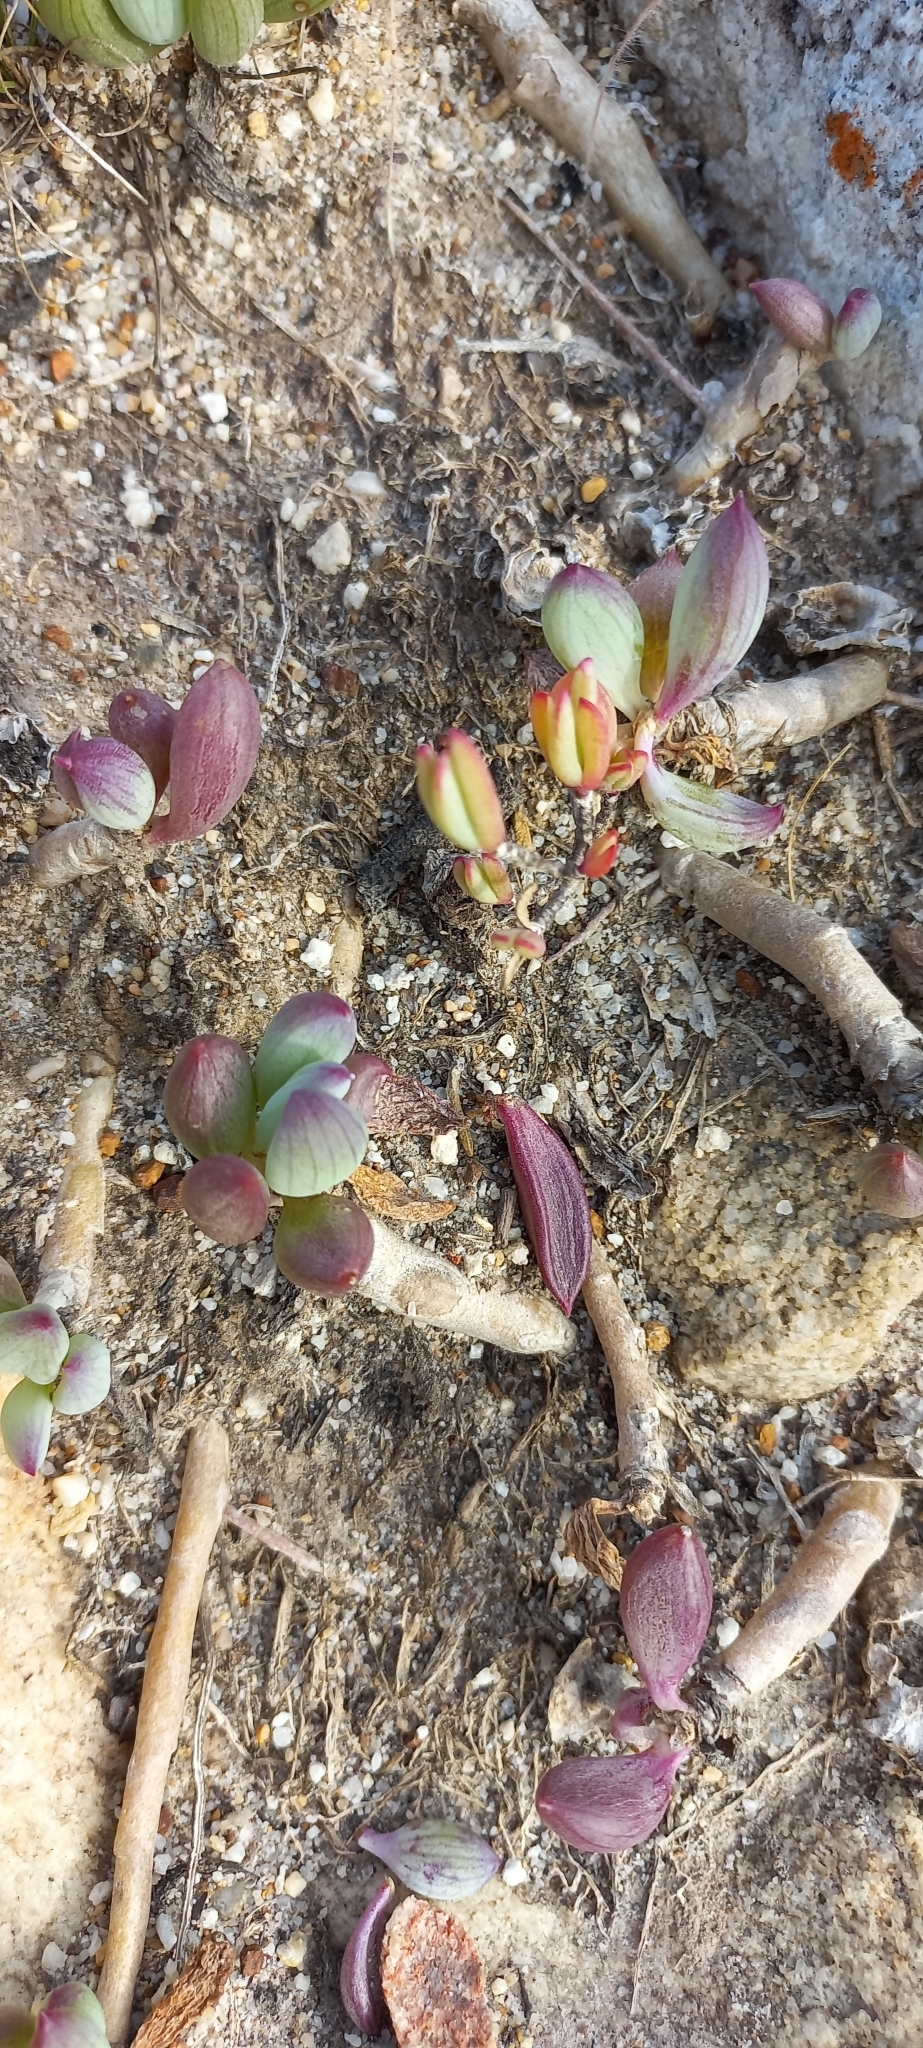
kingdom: Plantae
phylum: Tracheophyta
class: Magnoliopsida
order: Asterales
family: Asteraceae
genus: Curio
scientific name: Curio crassulifolius
